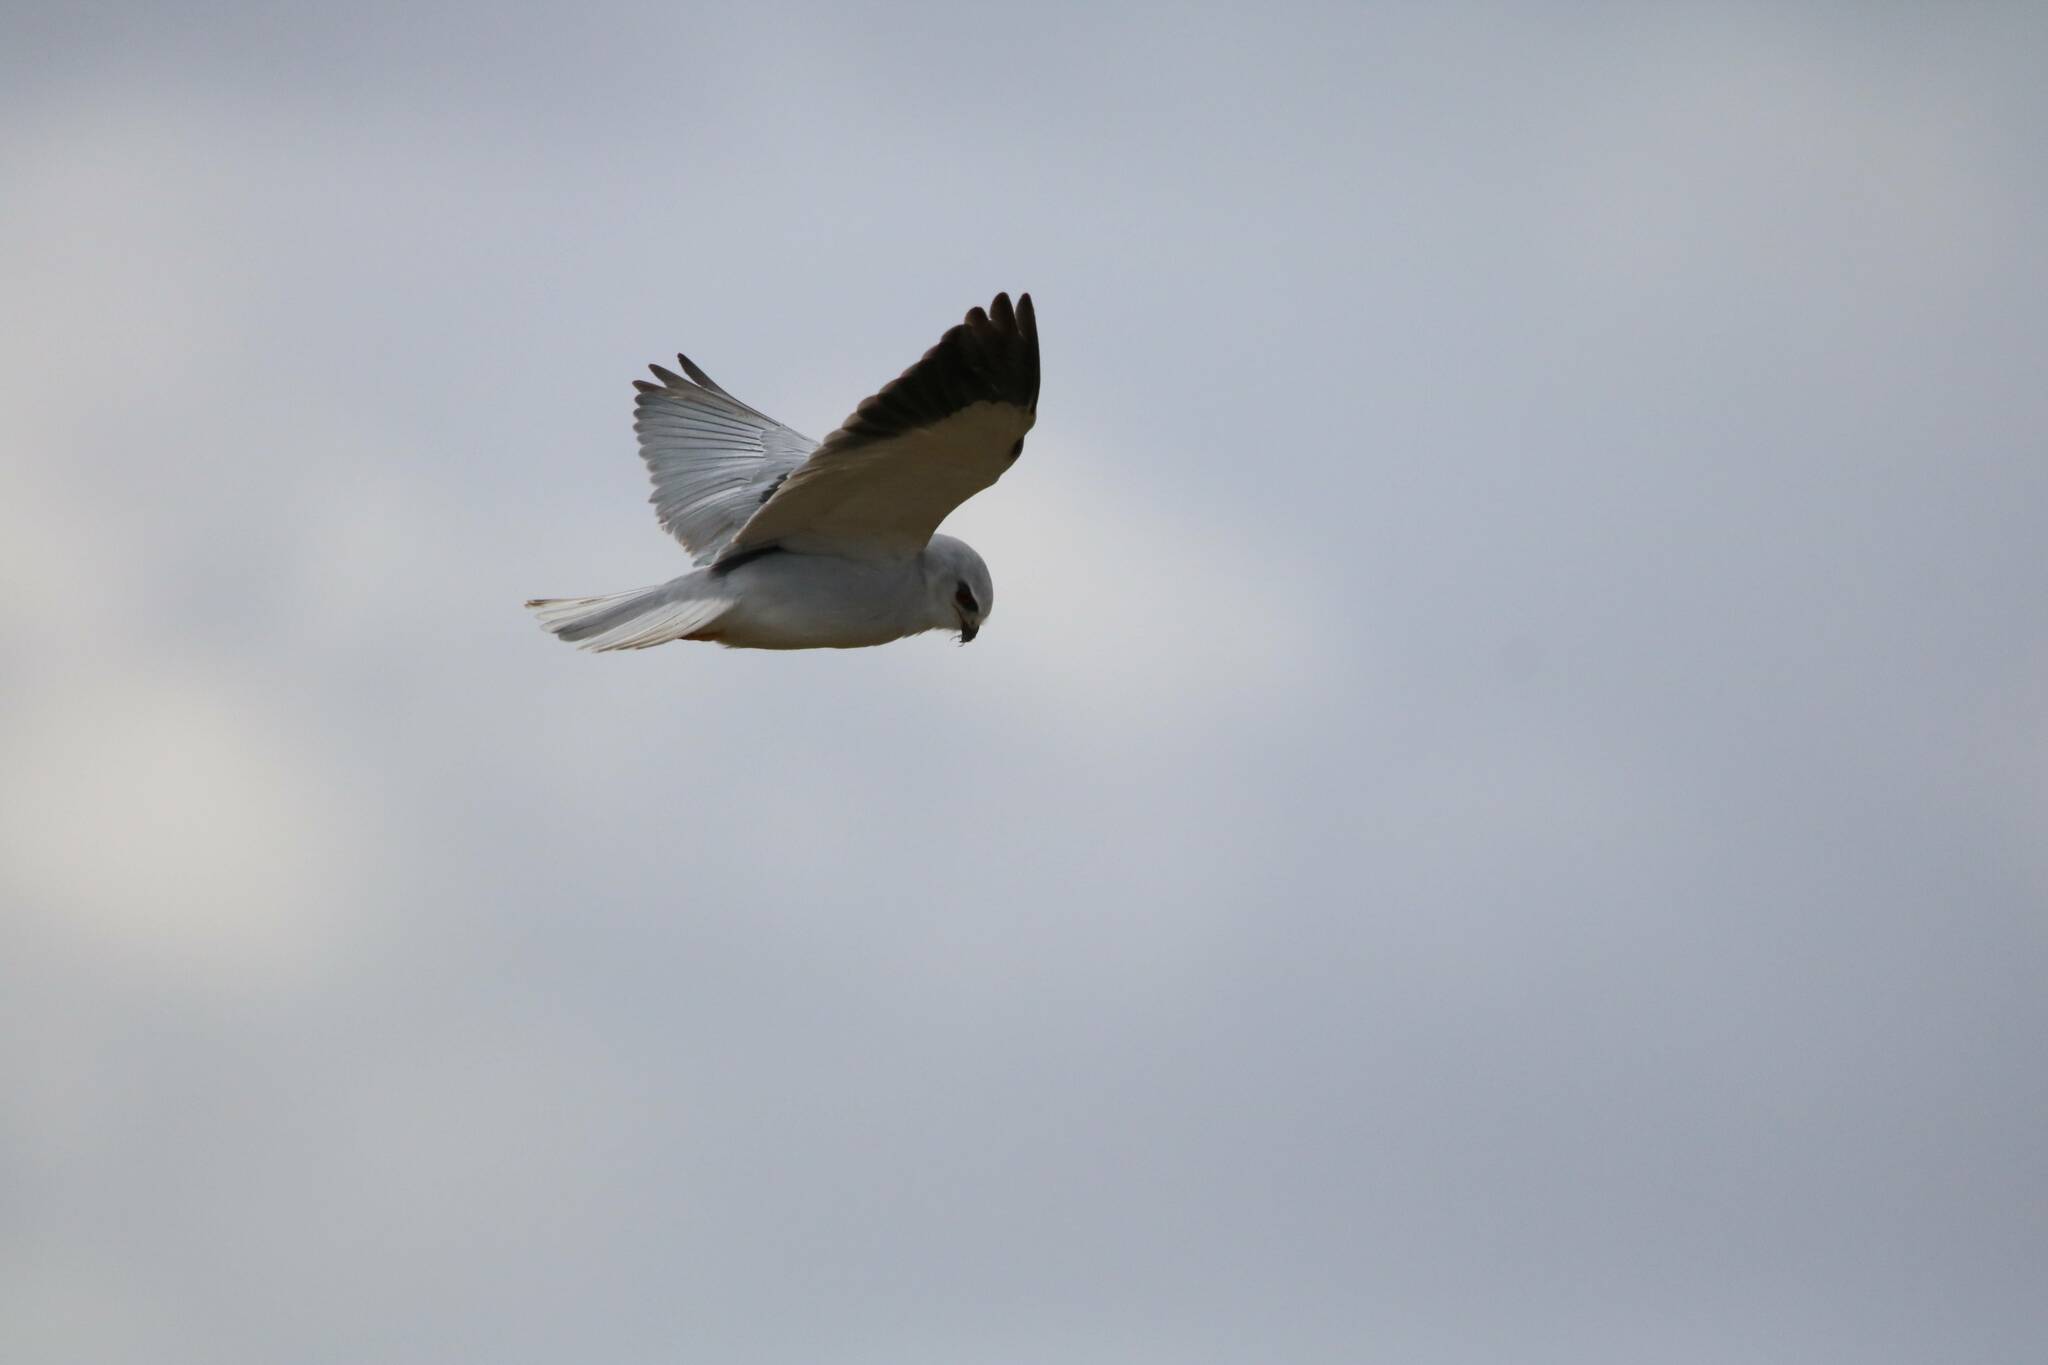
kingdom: Animalia
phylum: Chordata
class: Aves
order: Accipitriformes
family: Accipitridae
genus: Elanus
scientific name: Elanus caeruleus
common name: Black-winged kite
